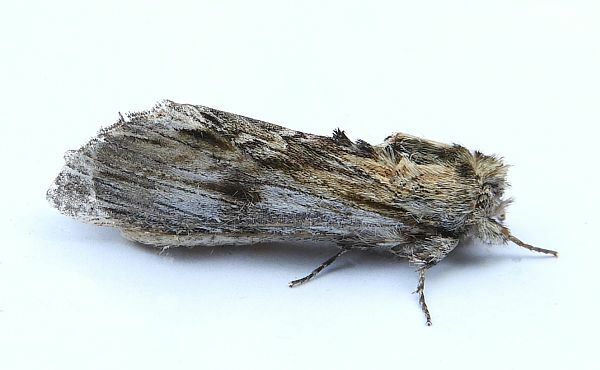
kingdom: Animalia
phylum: Arthropoda
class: Insecta
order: Lepidoptera
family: Notodontidae
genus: Oligocentria
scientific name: Oligocentria Ianassa lignicolor
